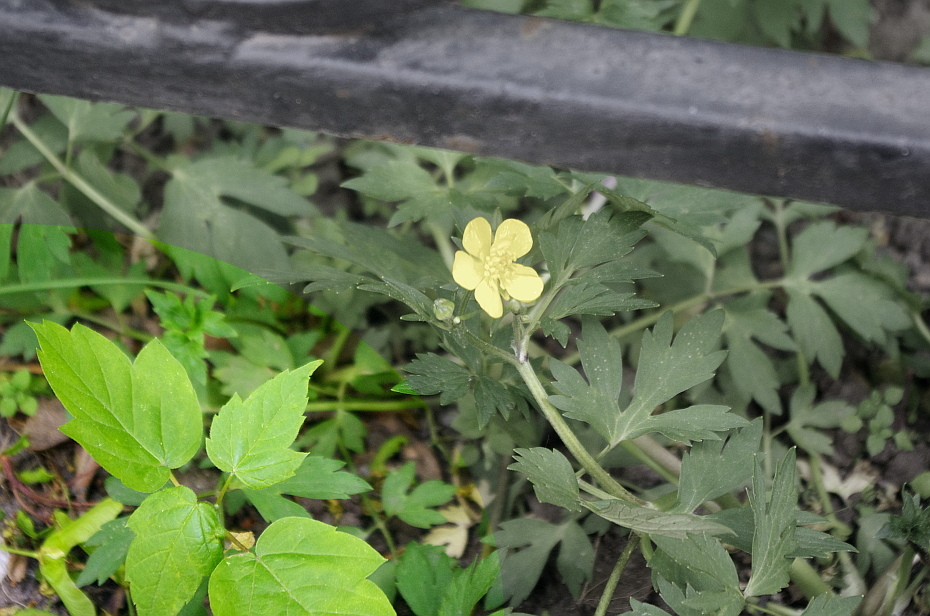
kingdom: Plantae
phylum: Tracheophyta
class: Magnoliopsida
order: Sapindales
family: Sapindaceae
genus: Acer
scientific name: Acer negundo
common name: Ashleaf maple
